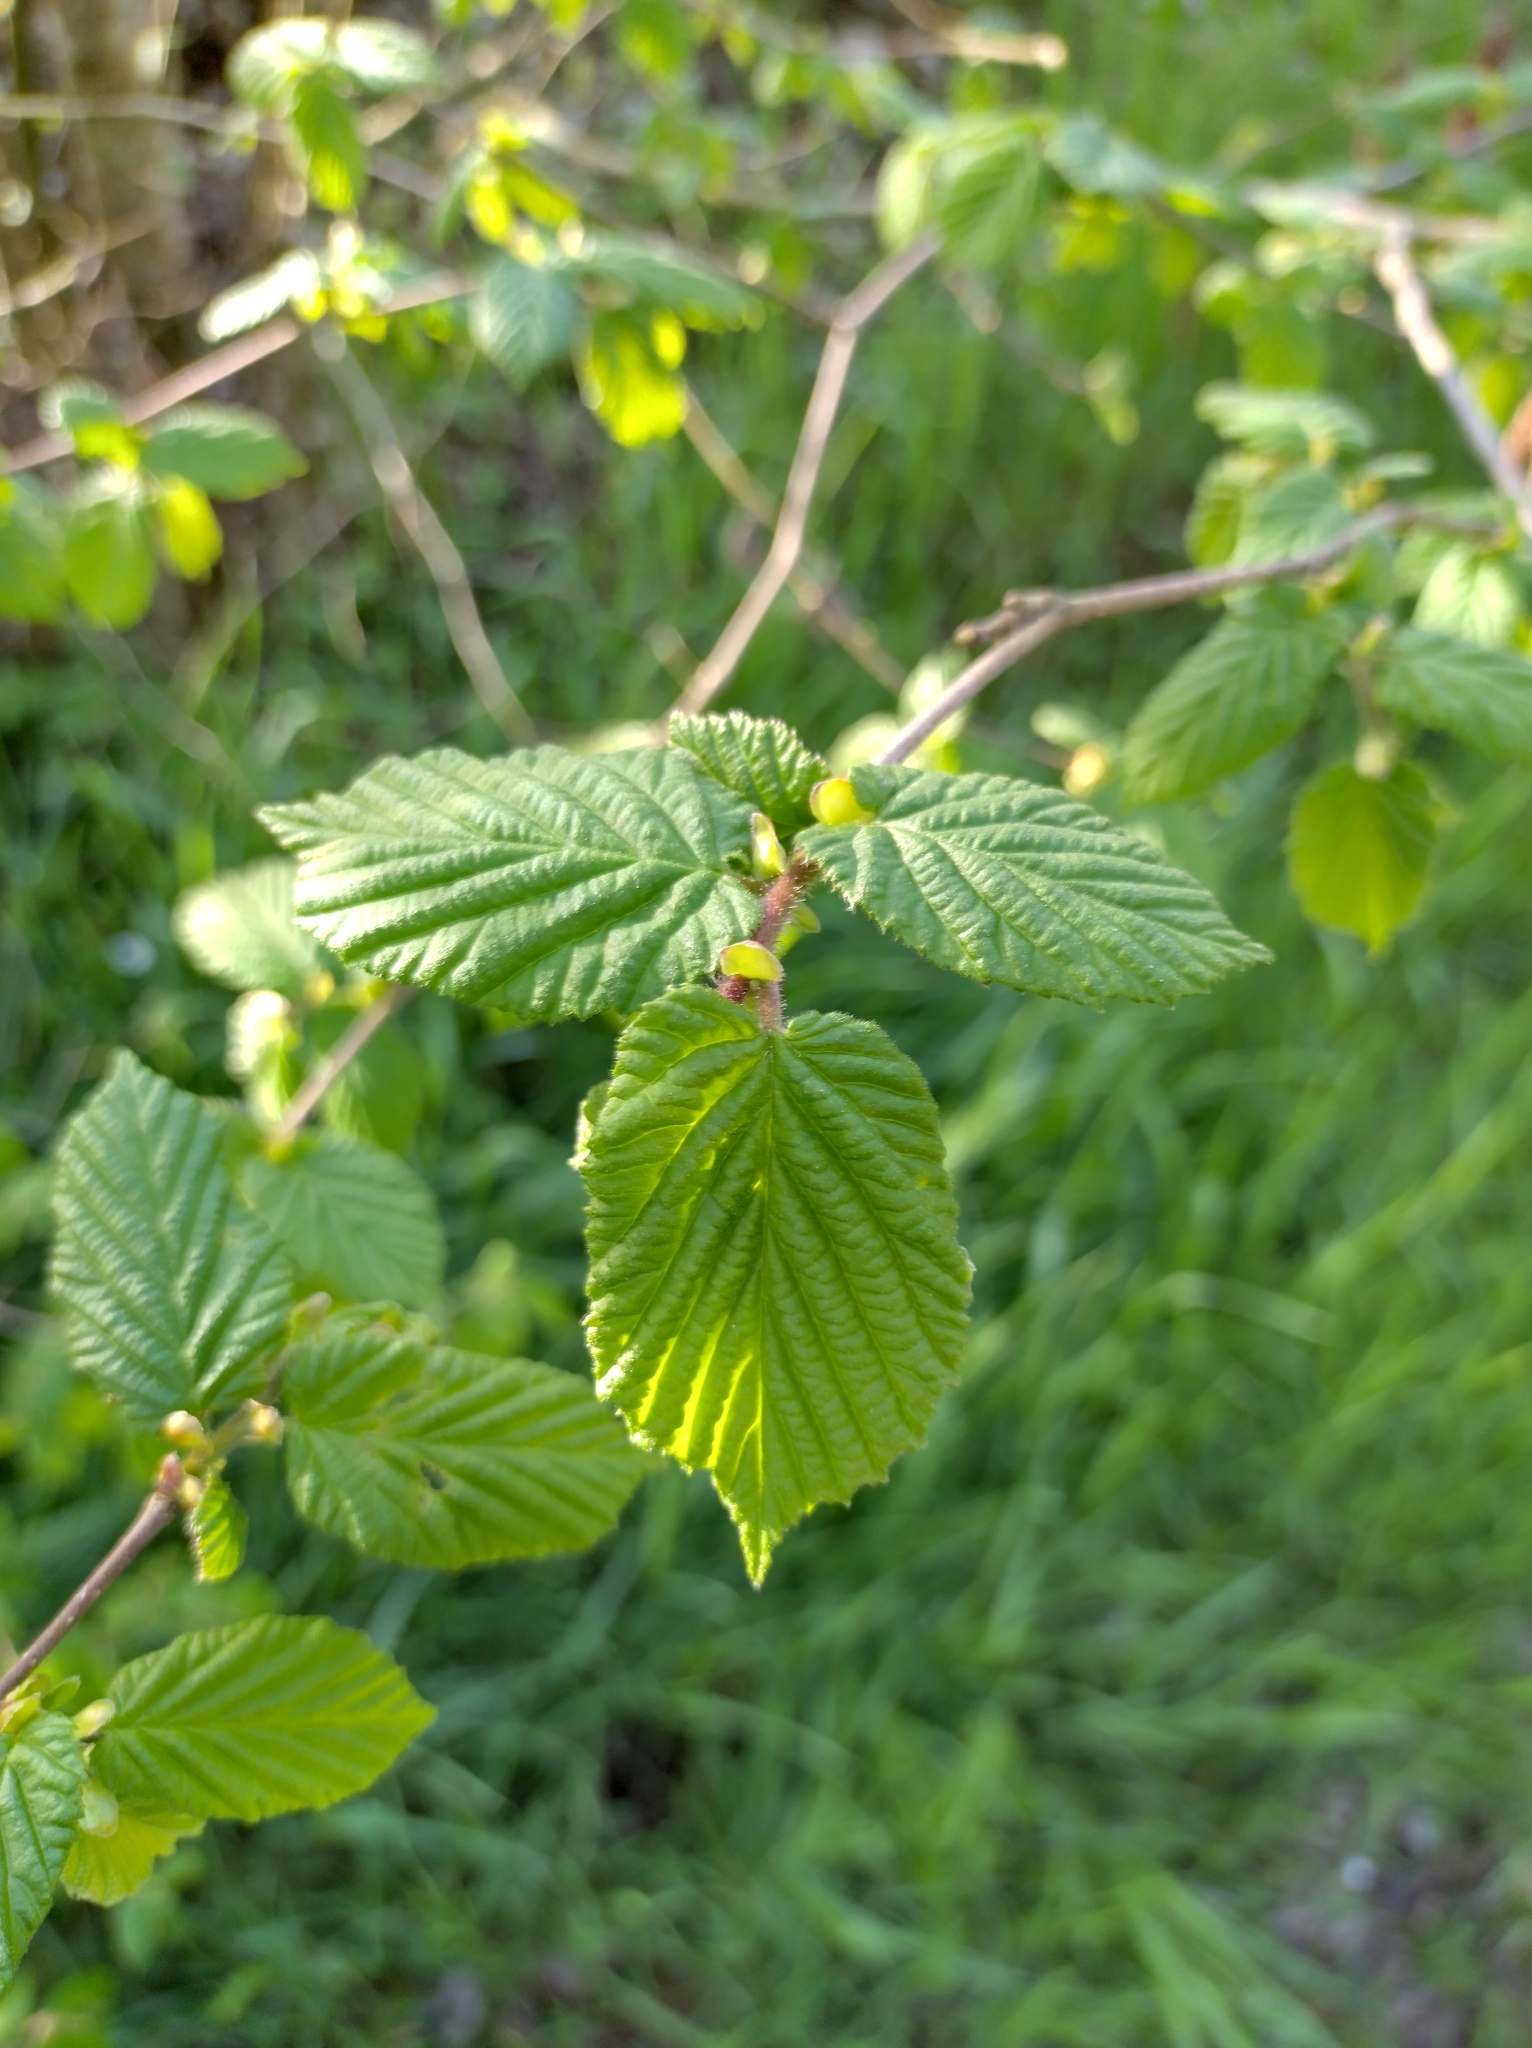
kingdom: Plantae
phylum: Tracheophyta
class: Magnoliopsida
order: Fagales
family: Betulaceae
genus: Corylus
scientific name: Corylus avellana
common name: European hazel
